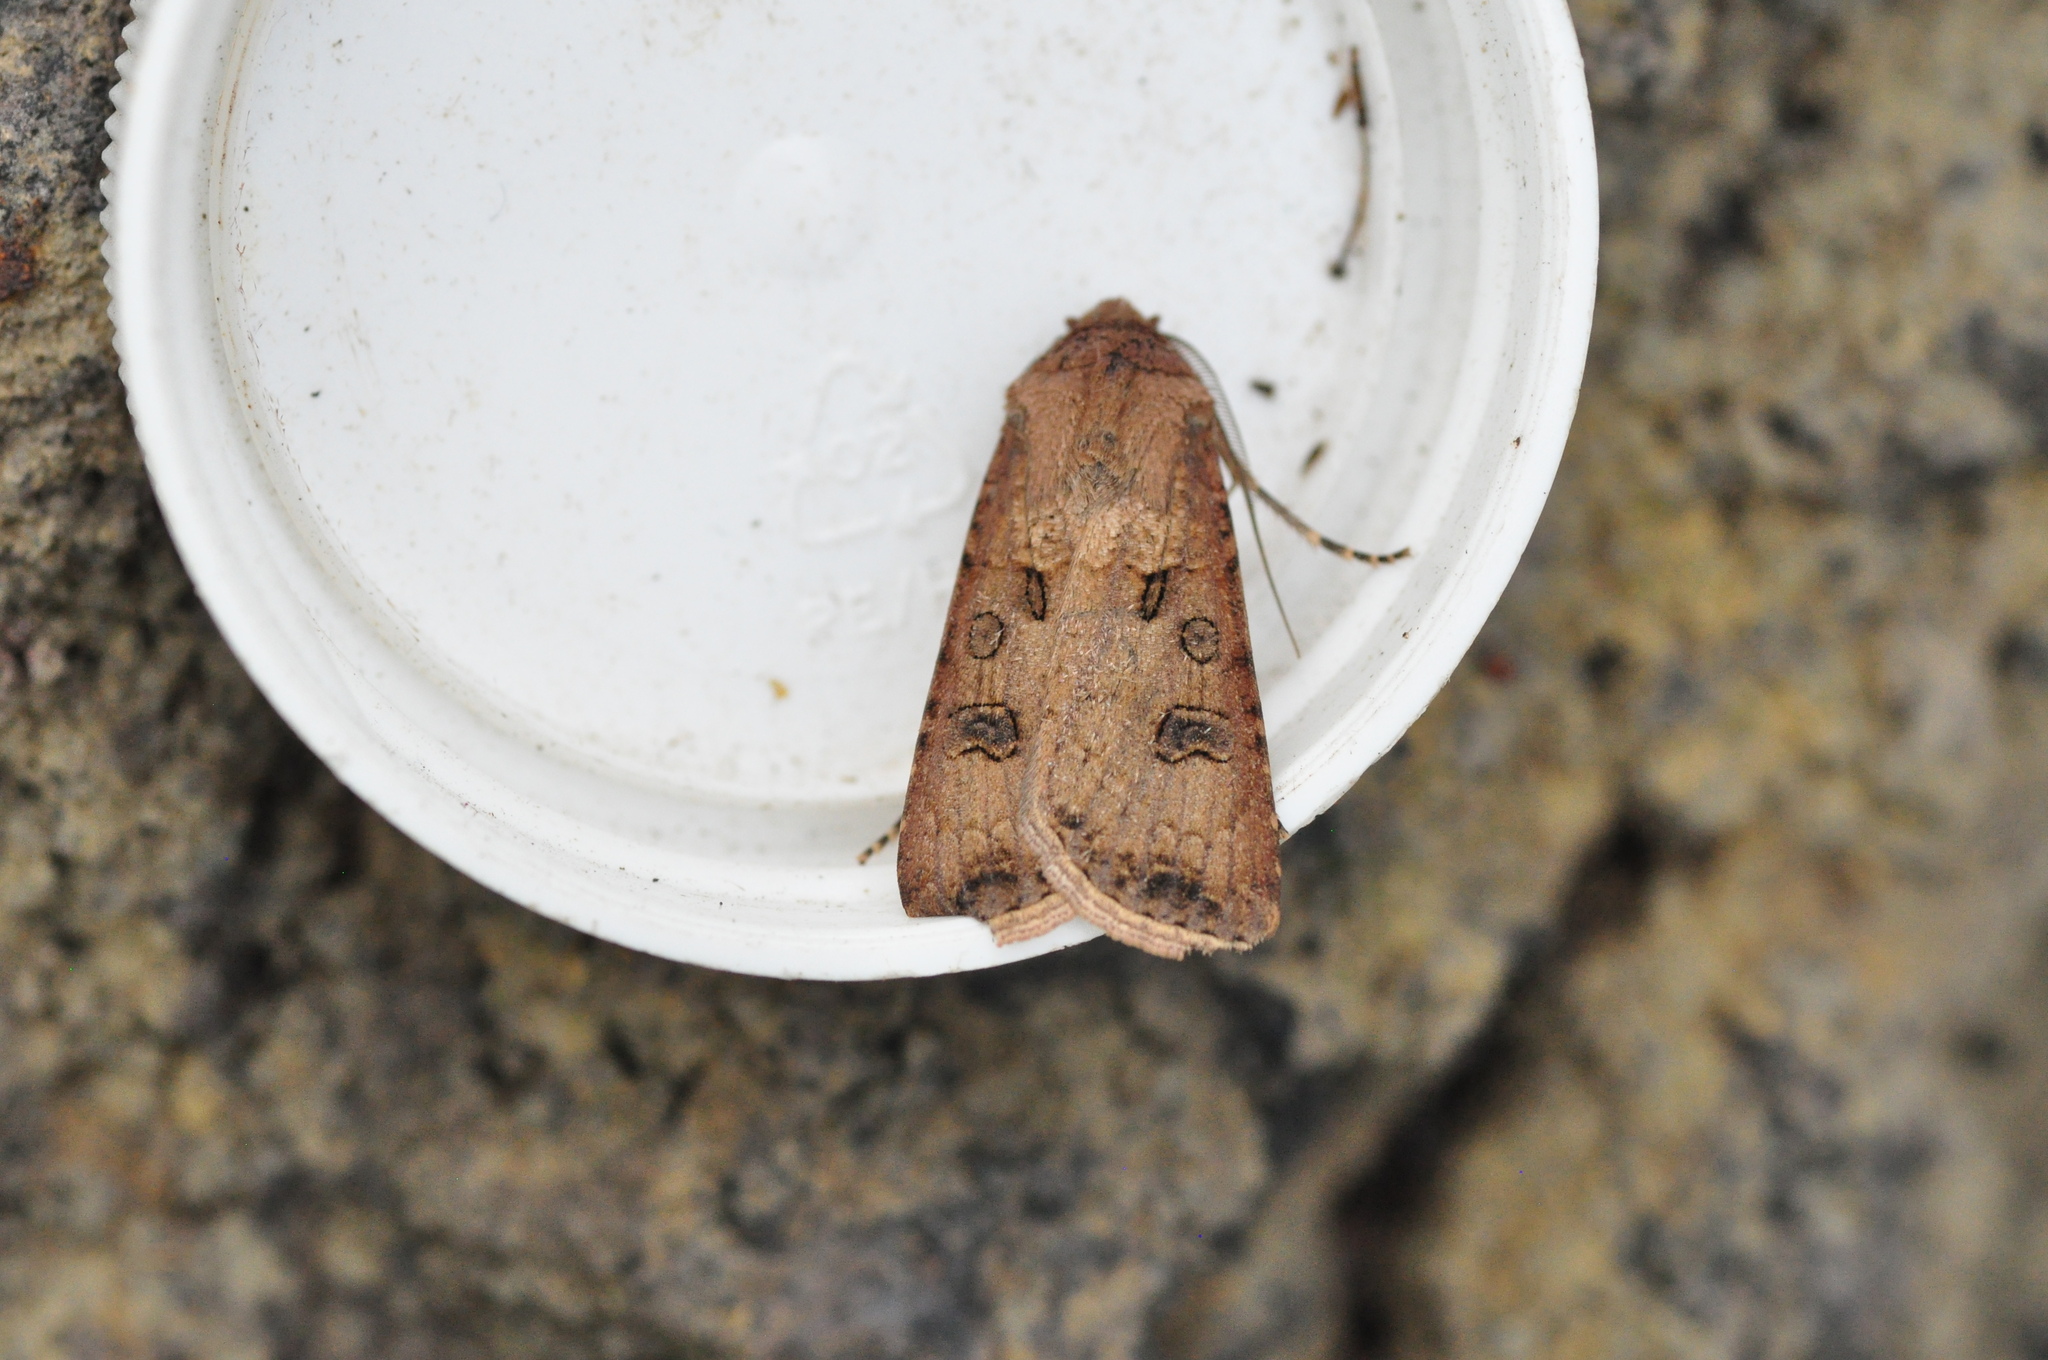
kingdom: Animalia
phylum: Arthropoda
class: Insecta
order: Lepidoptera
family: Noctuidae
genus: Agrotis
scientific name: Agrotis segetum
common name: Turnip moth
